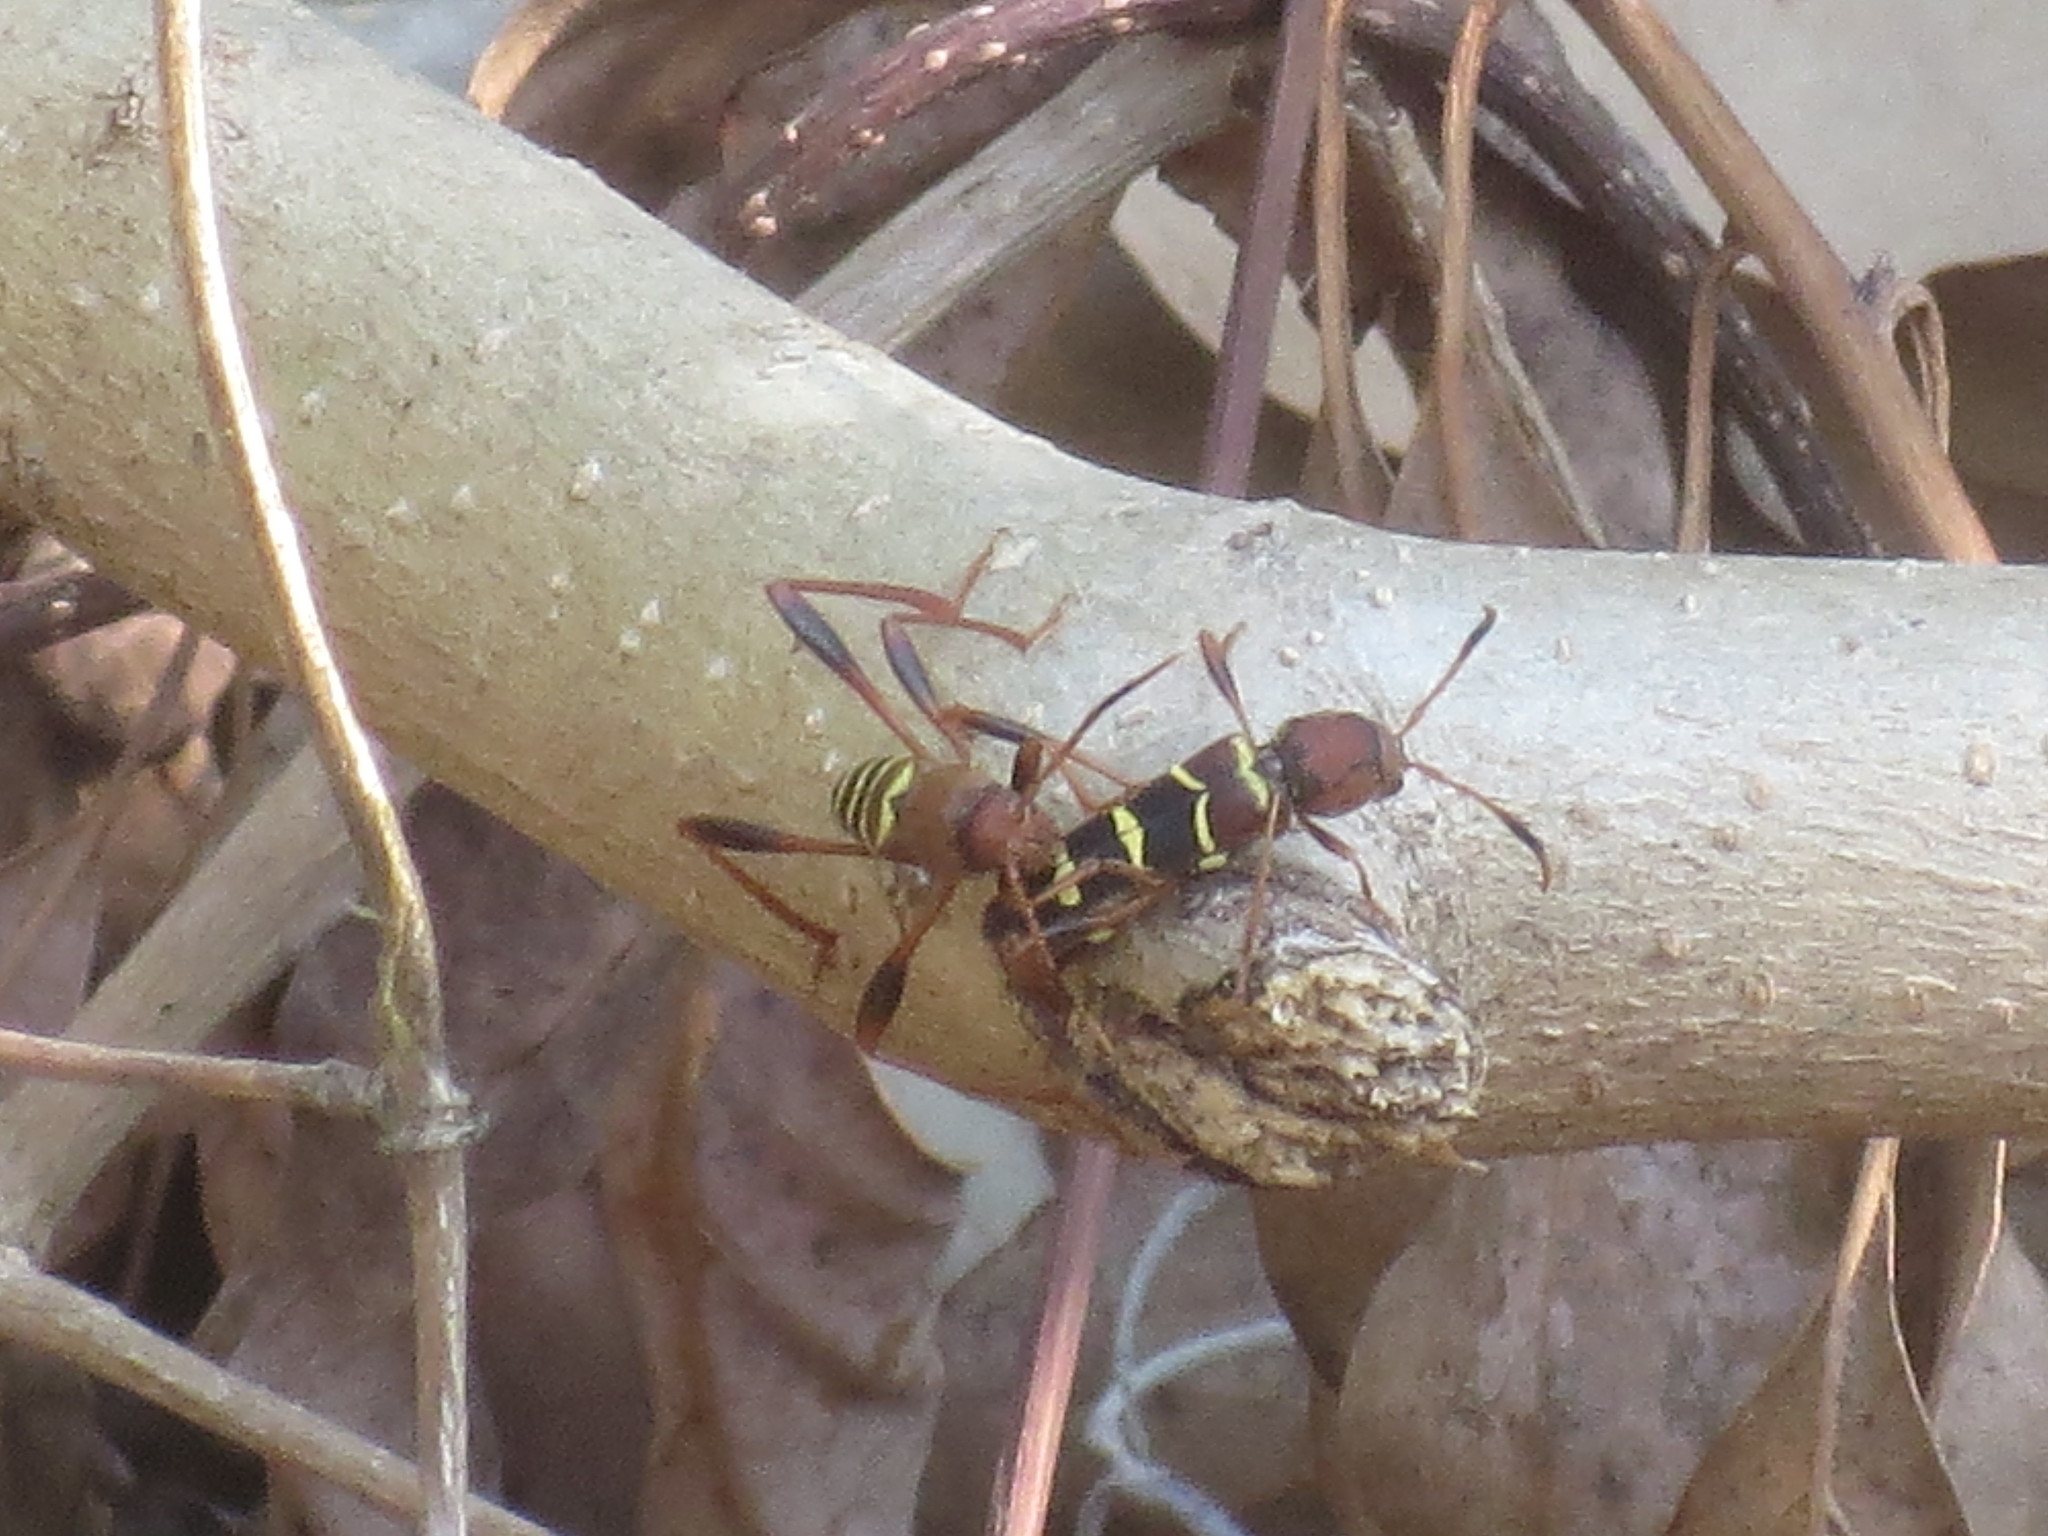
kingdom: Animalia
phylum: Arthropoda
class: Insecta
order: Coleoptera
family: Cerambycidae
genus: Neoclytus
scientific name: Neoclytus acuminatus
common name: Read-headed ash borer
